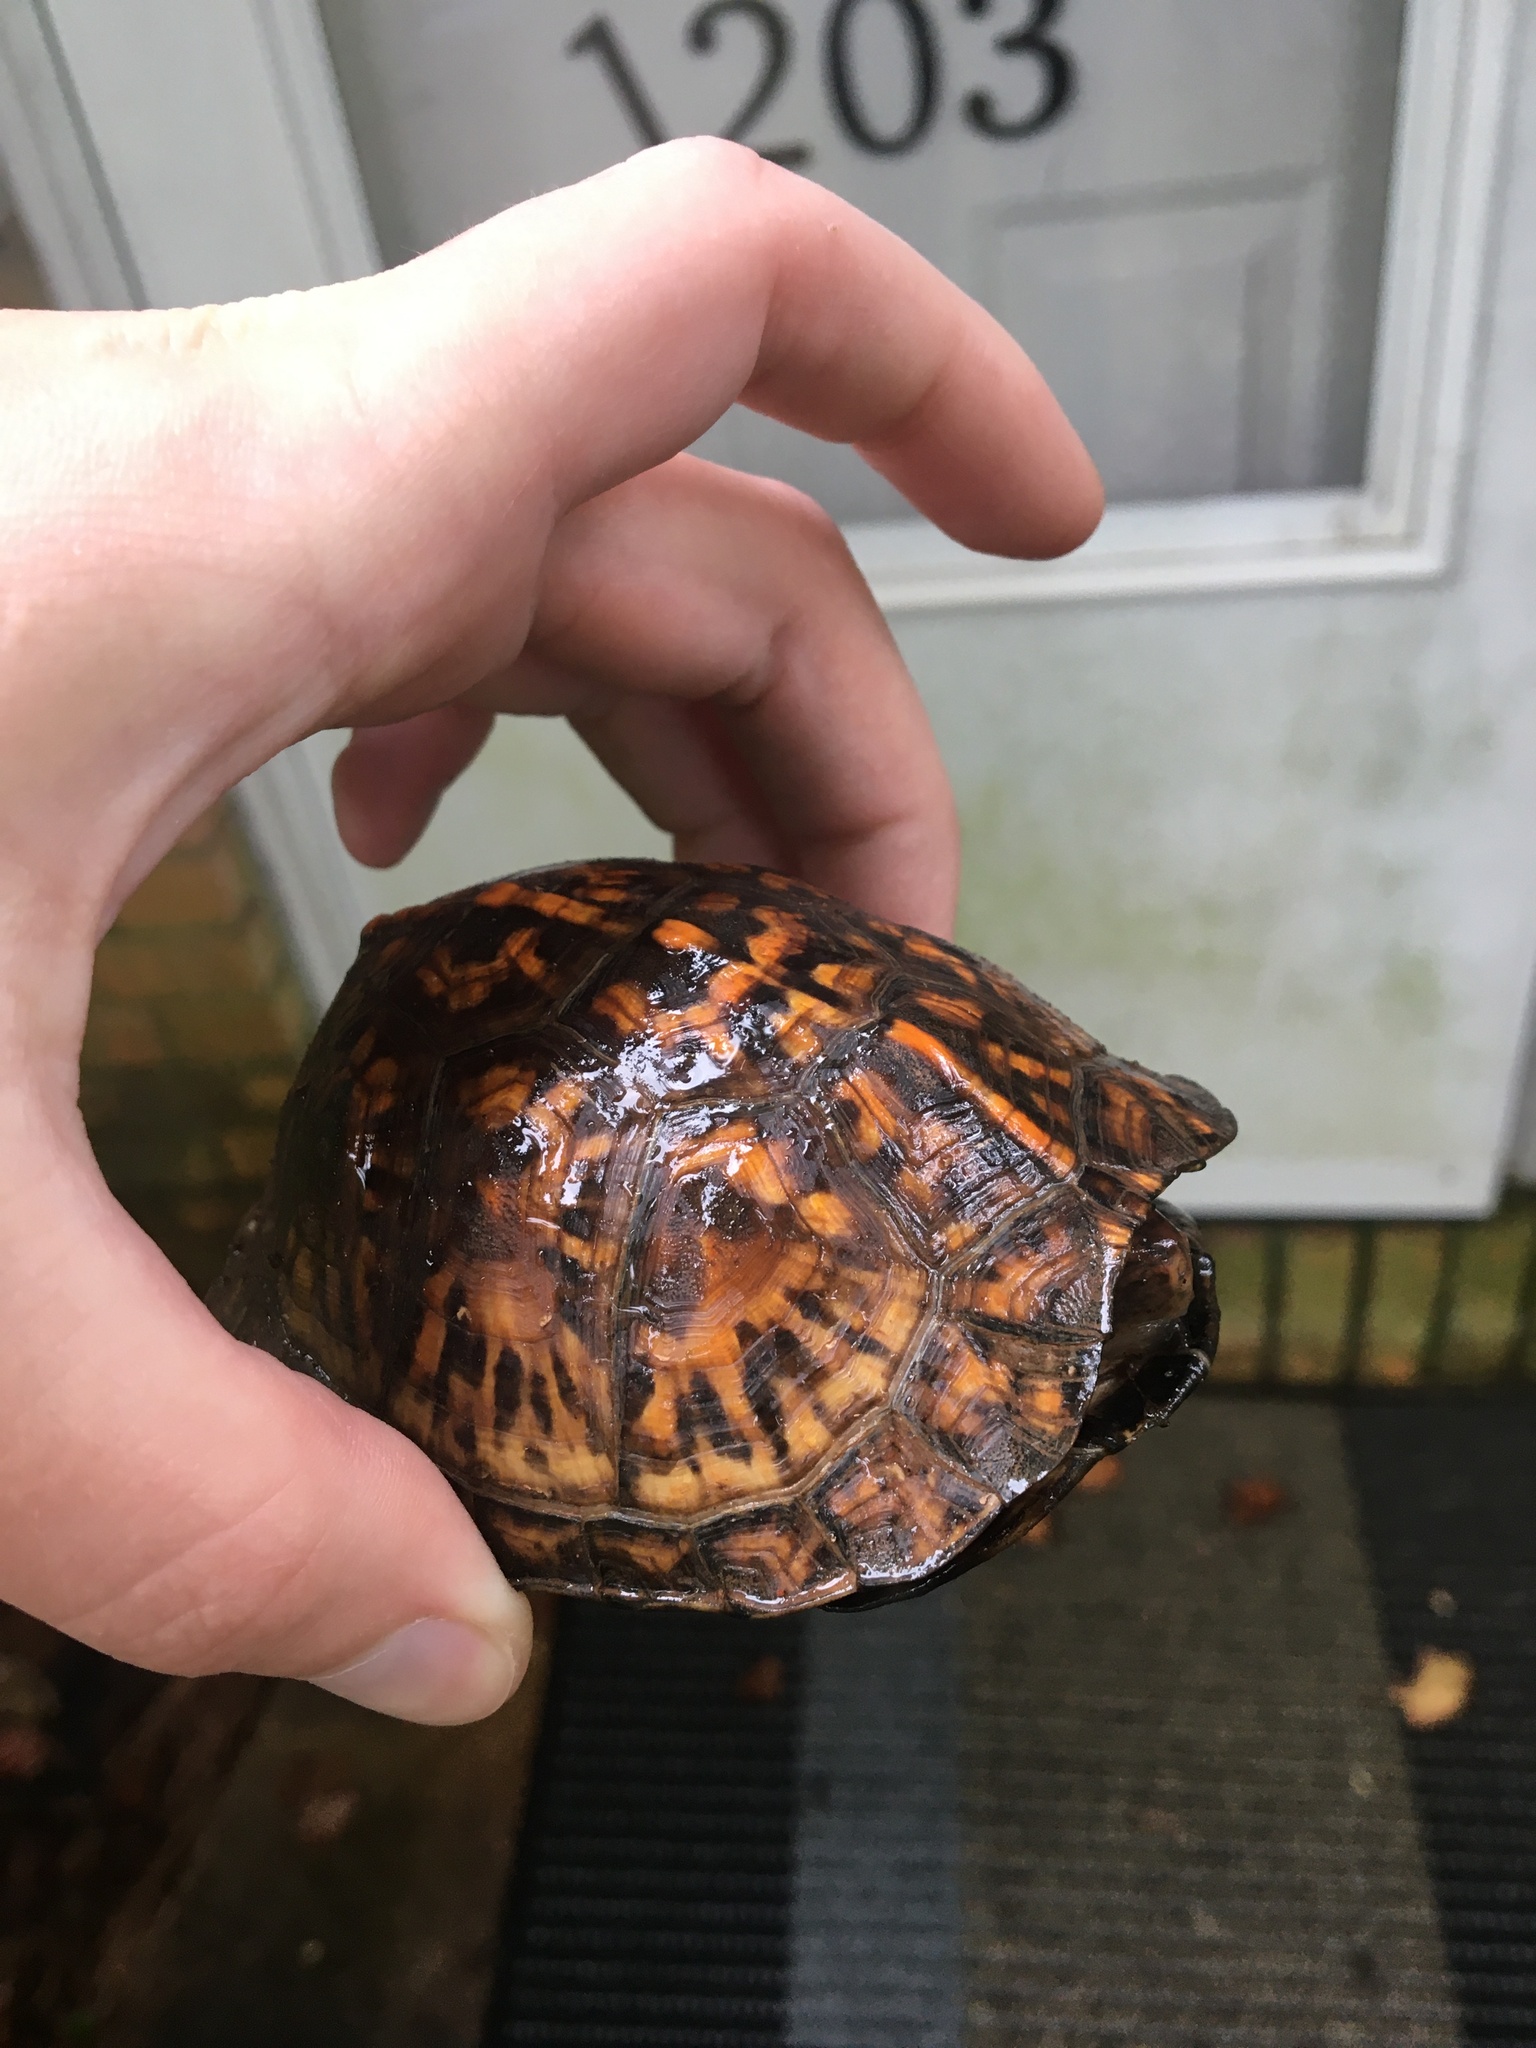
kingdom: Animalia
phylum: Chordata
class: Testudines
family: Emydidae
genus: Terrapene
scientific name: Terrapene carolina
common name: Common box turtle
